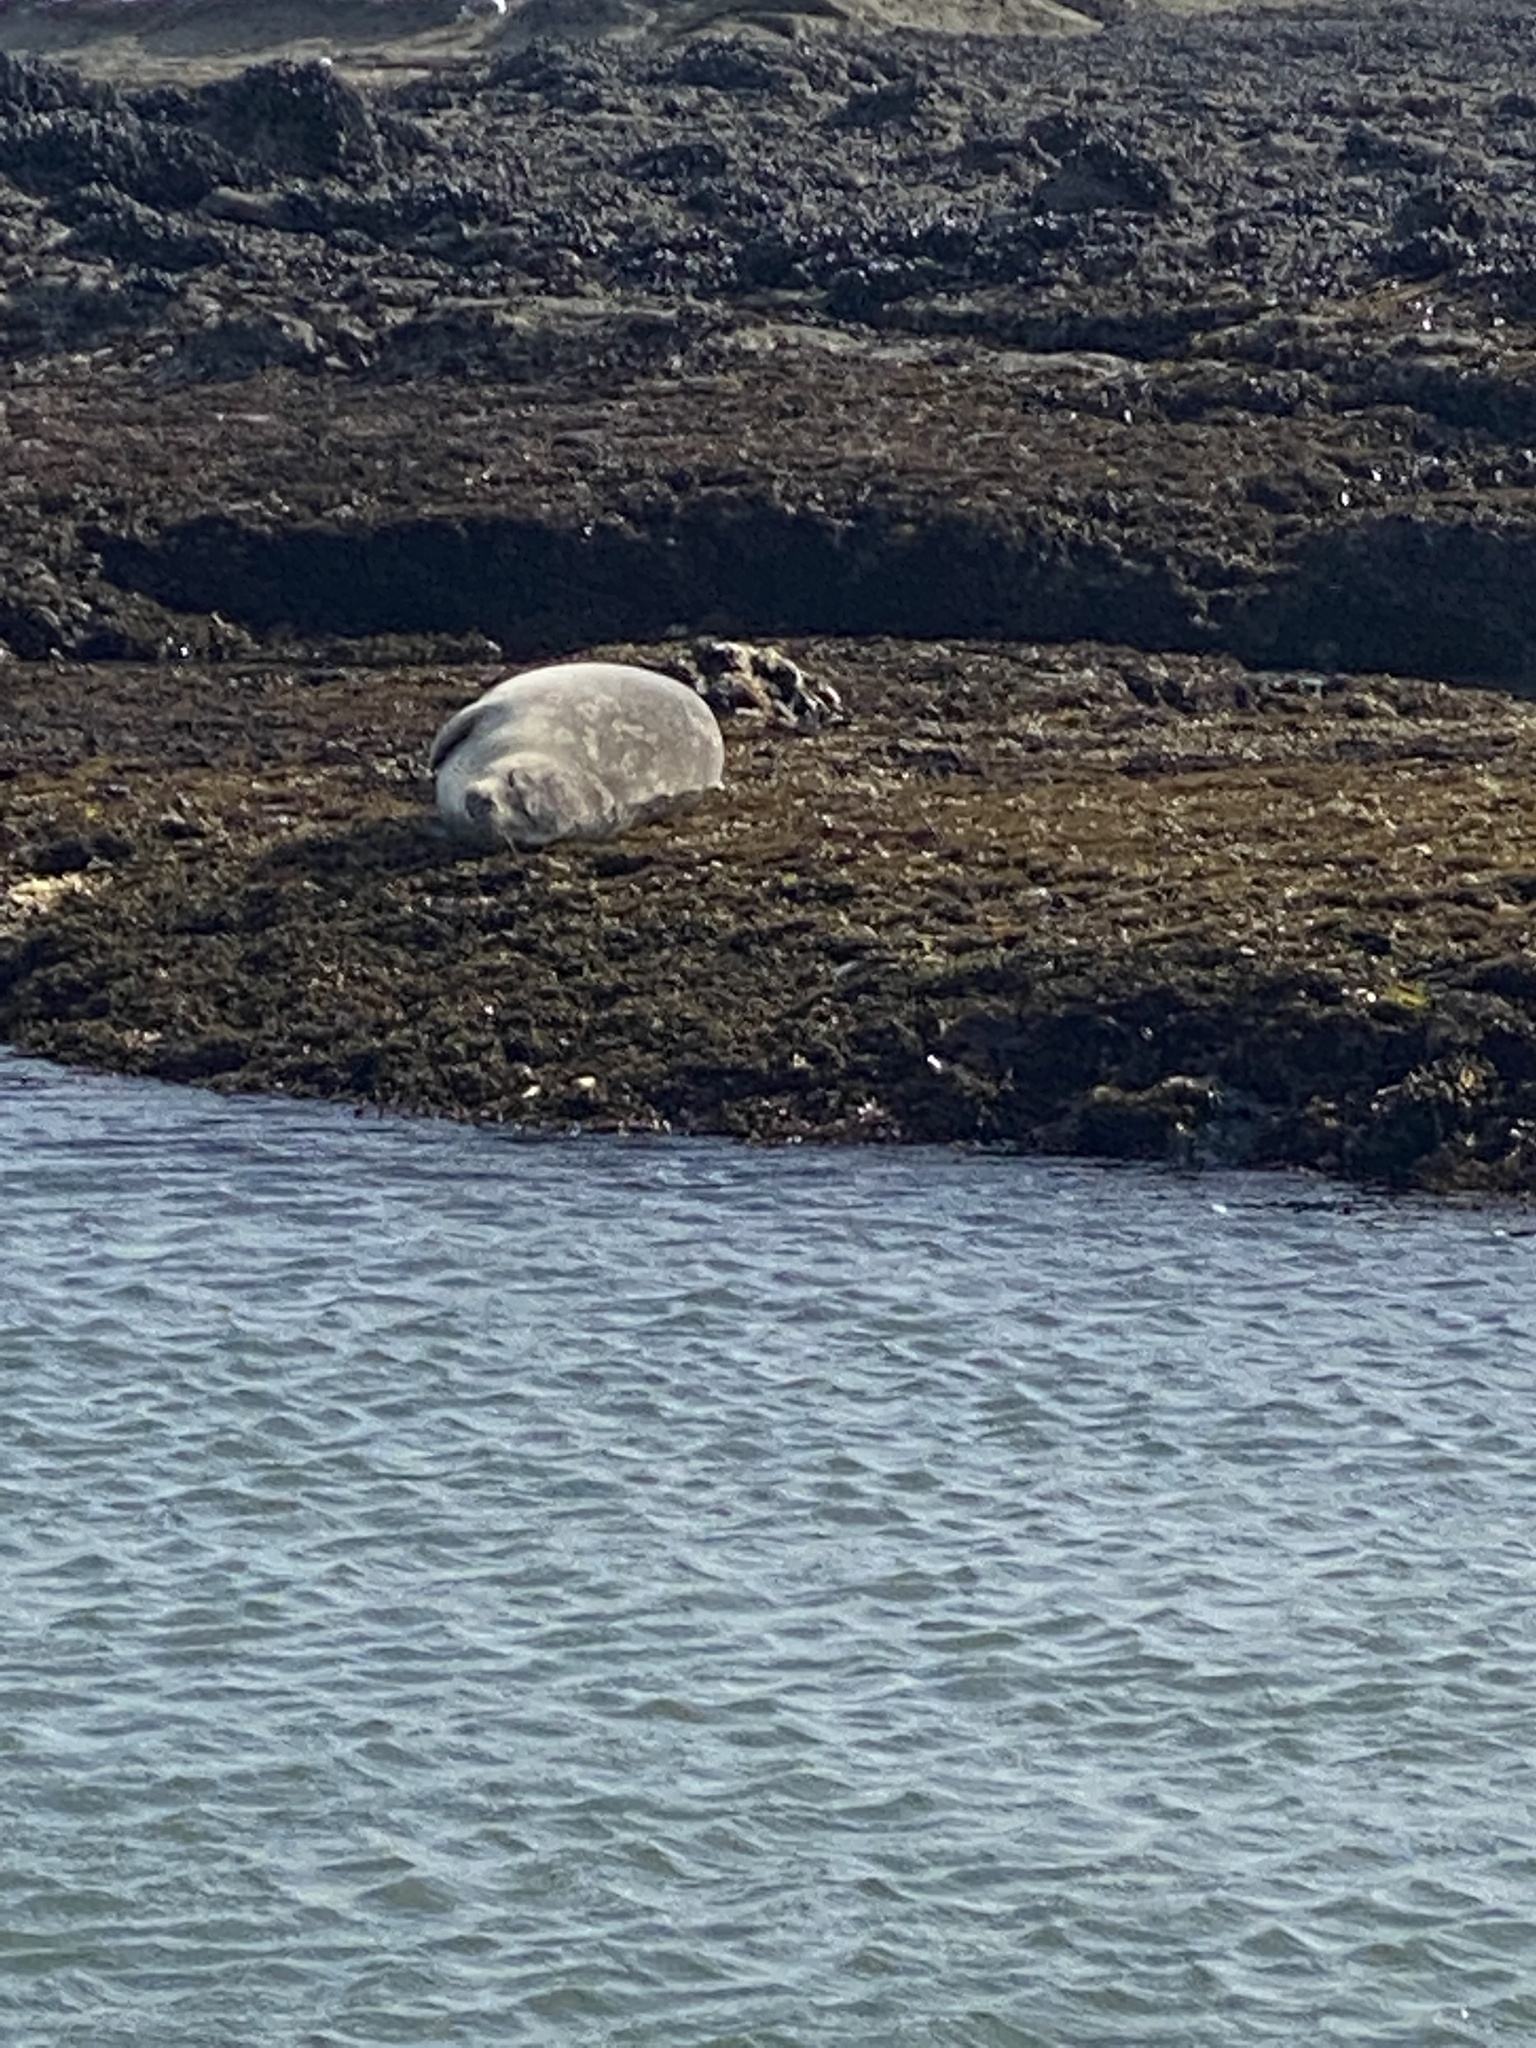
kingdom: Animalia
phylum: Chordata
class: Mammalia
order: Carnivora
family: Phocidae
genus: Phoca
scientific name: Phoca vitulina
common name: Harbor seal
